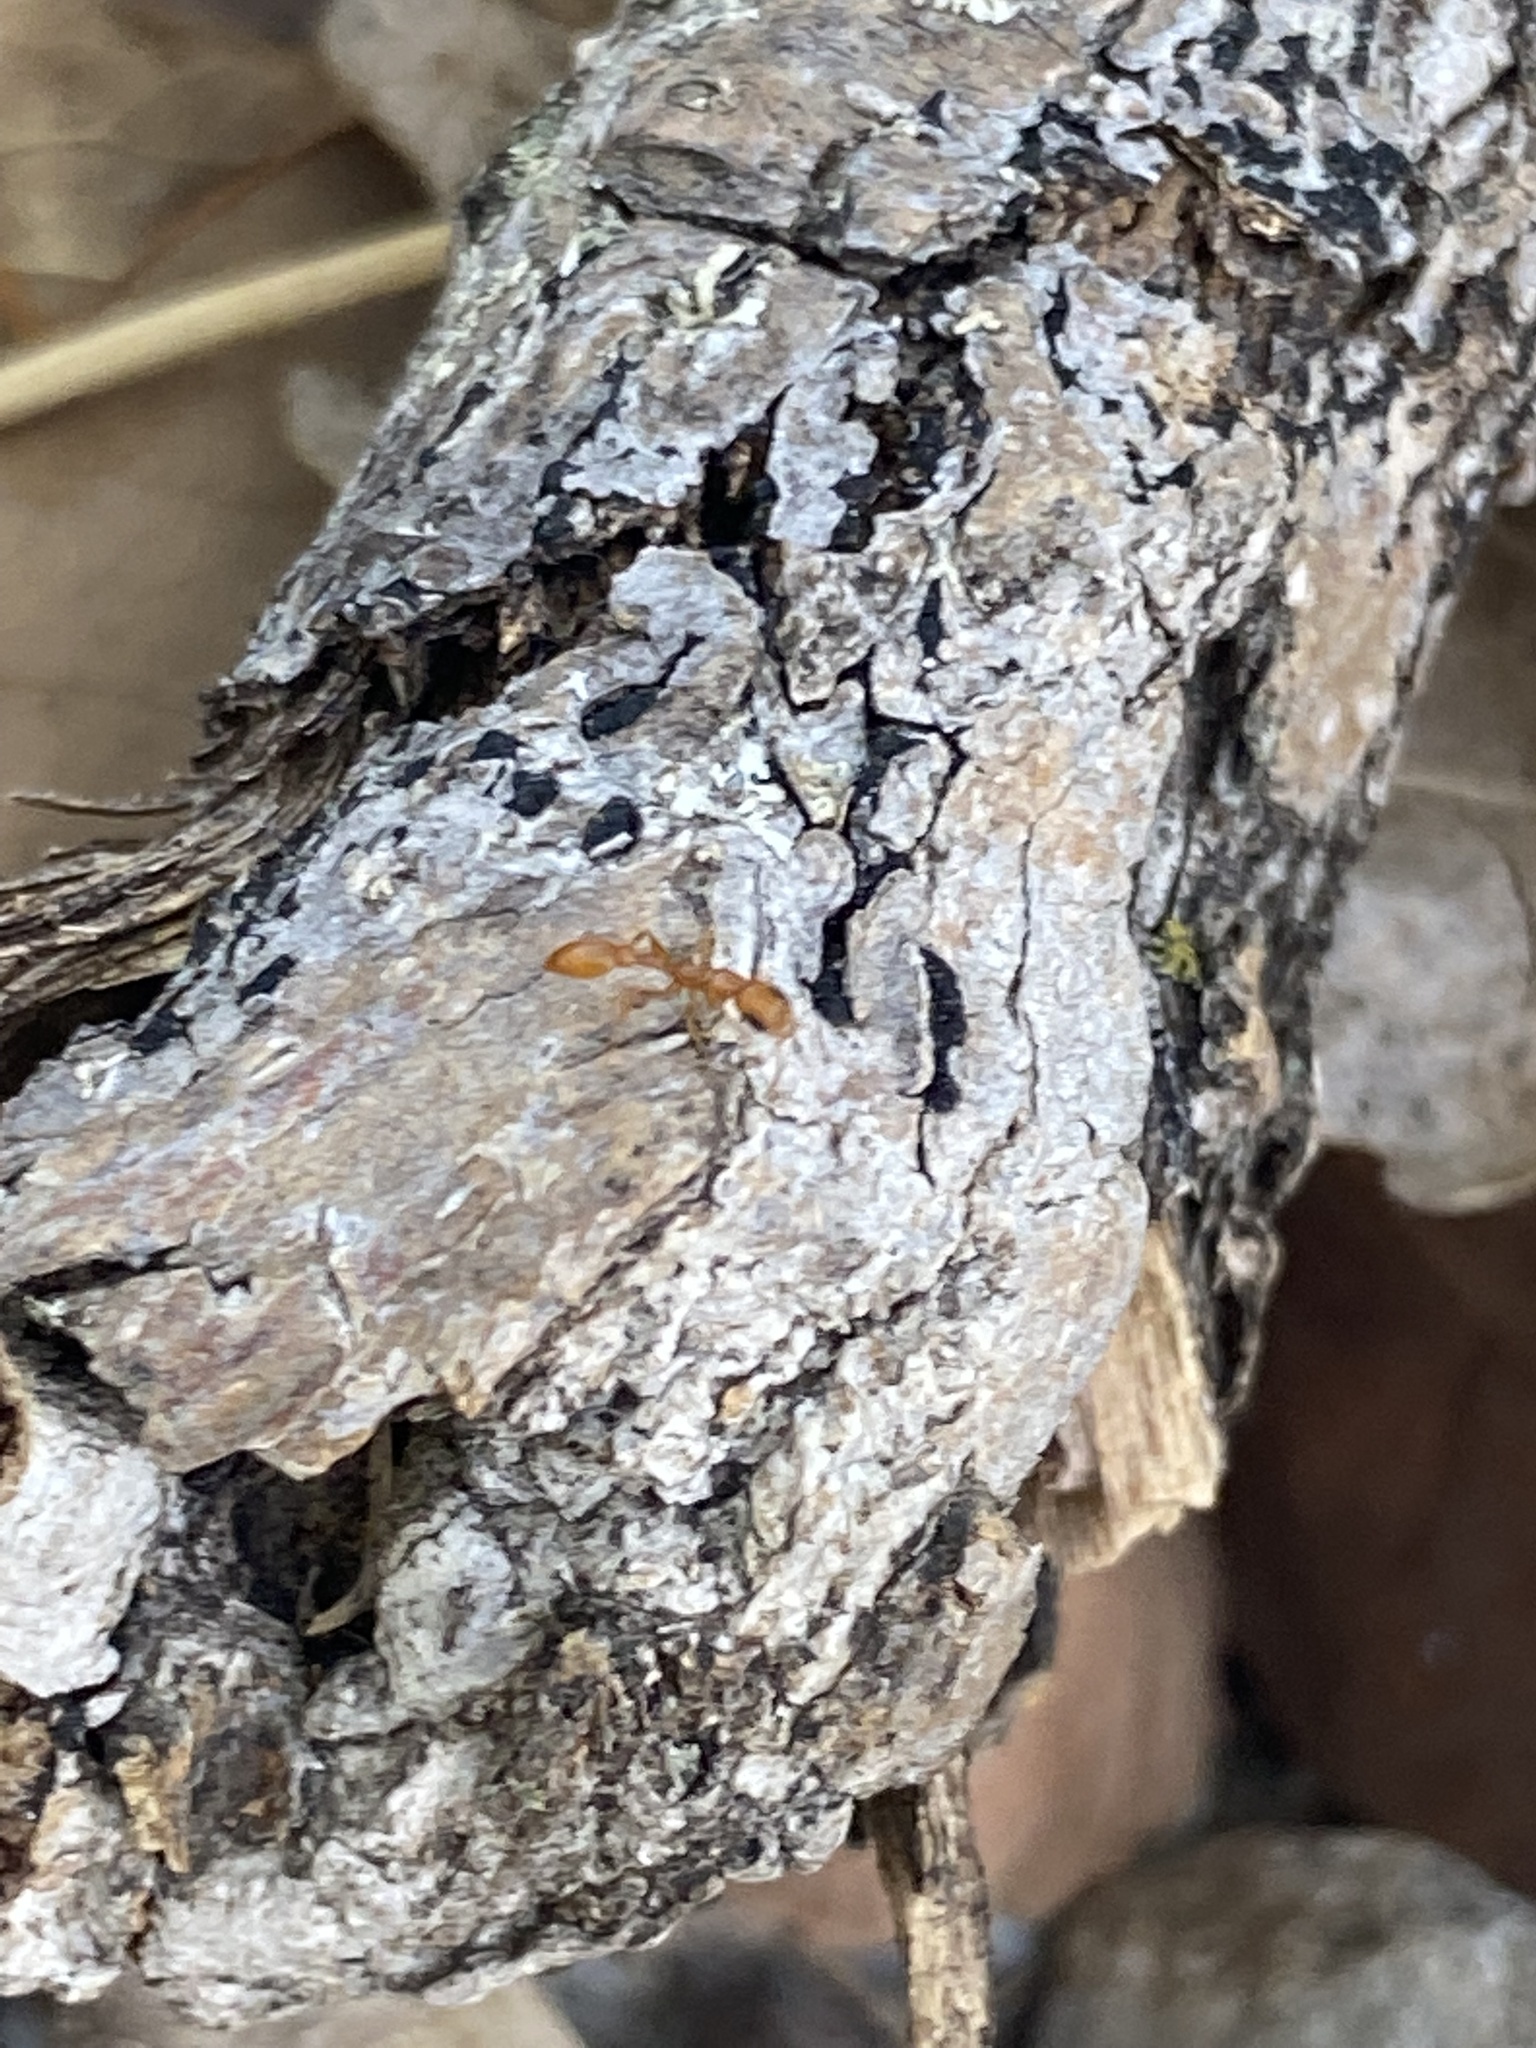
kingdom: Animalia
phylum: Arthropoda
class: Insecta
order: Hymenoptera
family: Formicidae
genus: Pseudomyrmex
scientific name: Pseudomyrmex pallidus
